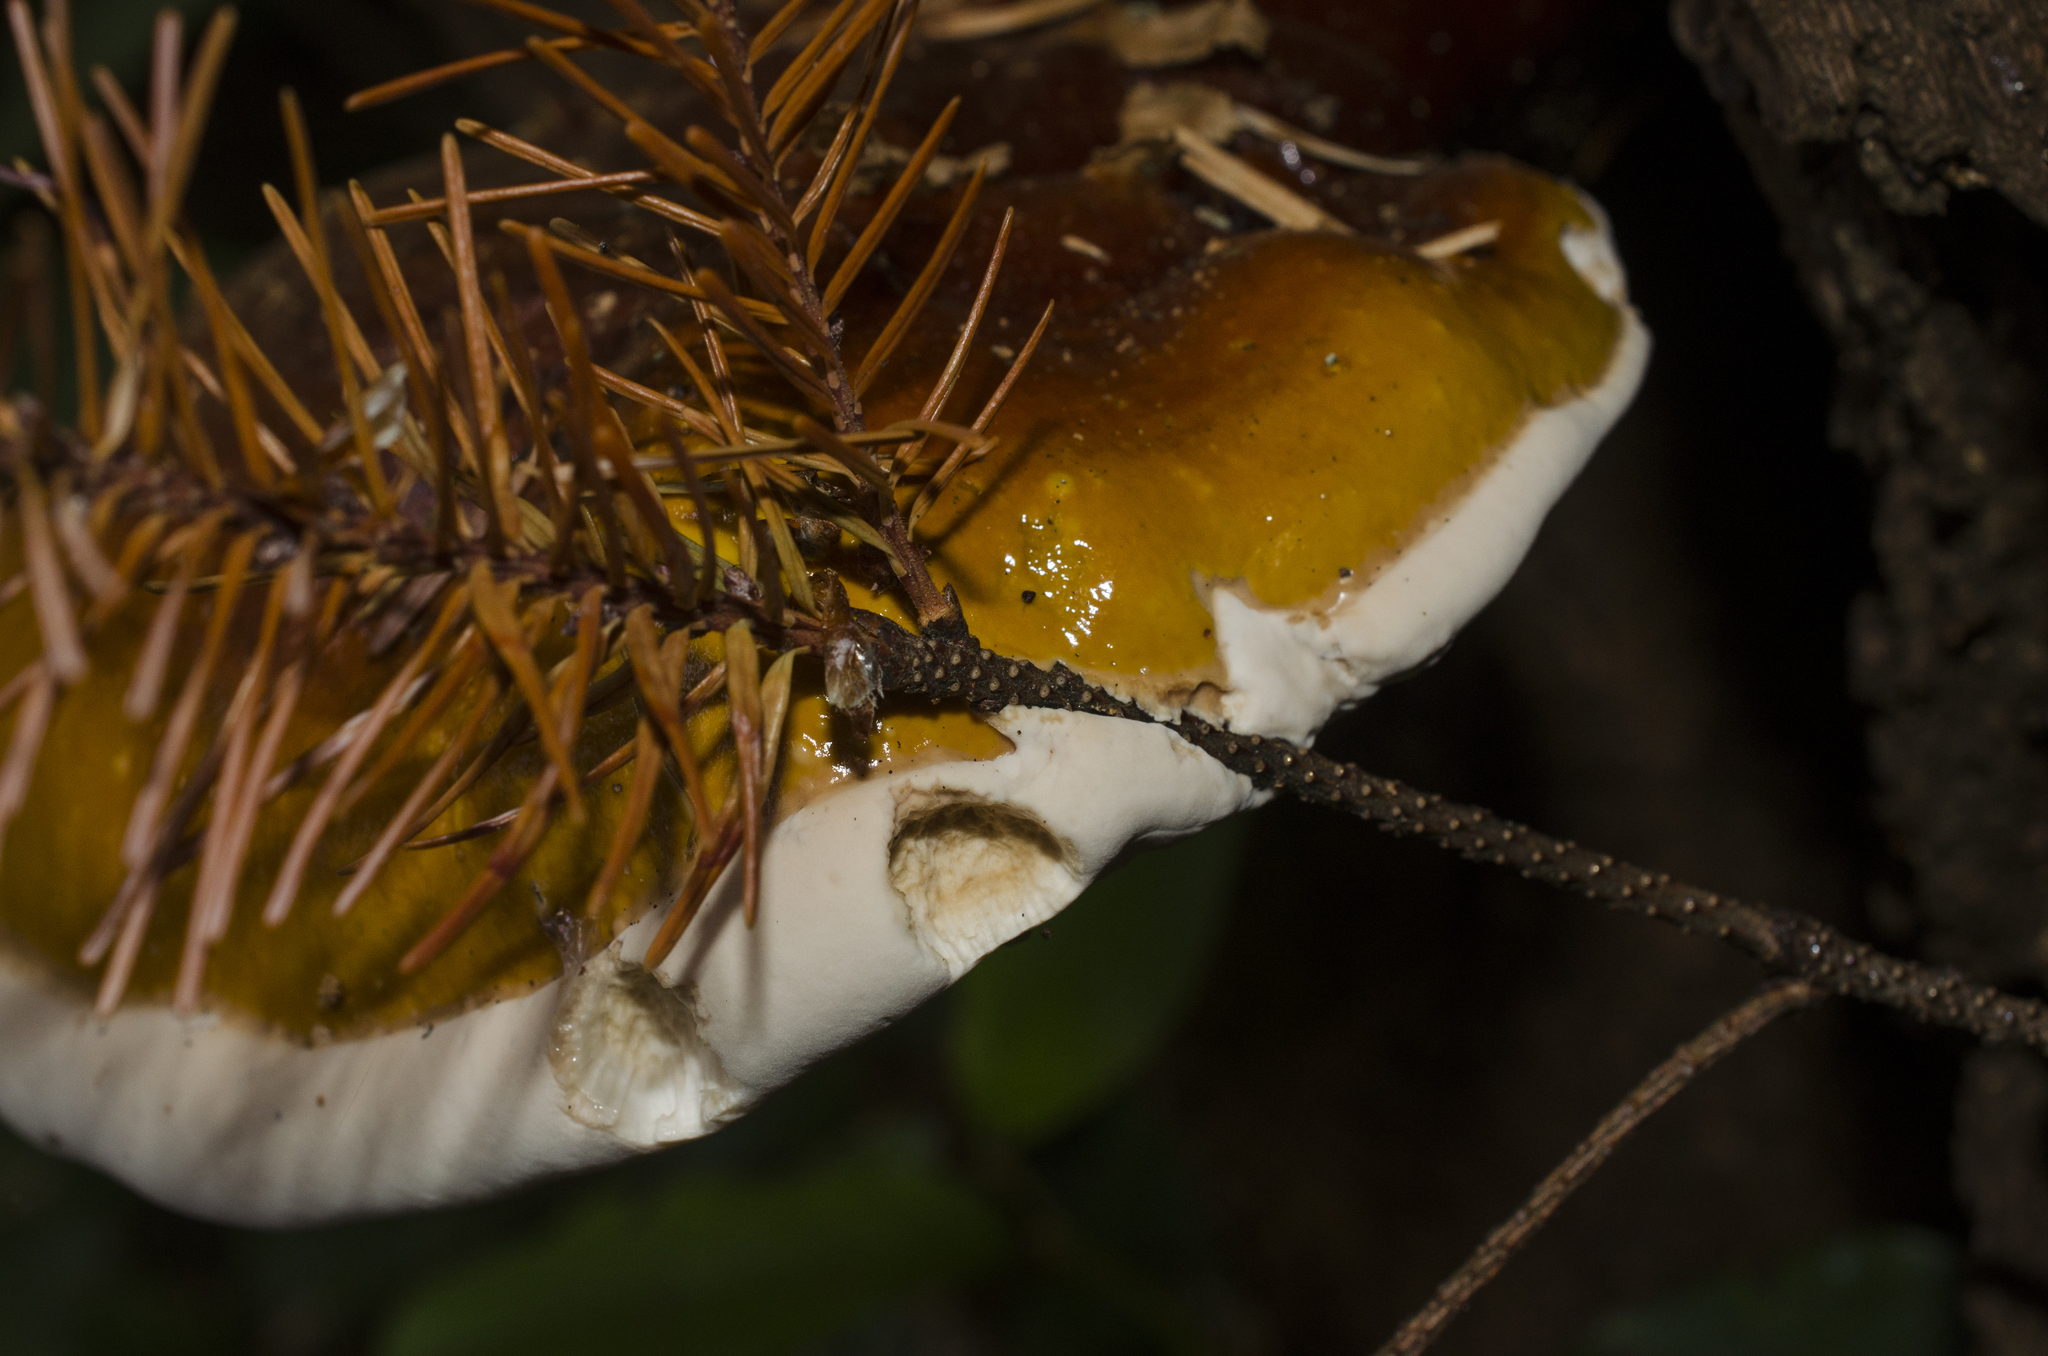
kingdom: Fungi
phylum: Basidiomycota
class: Agaricomycetes
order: Polyporales
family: Polyporaceae
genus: Ganoderma
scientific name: Ganoderma oregonense
